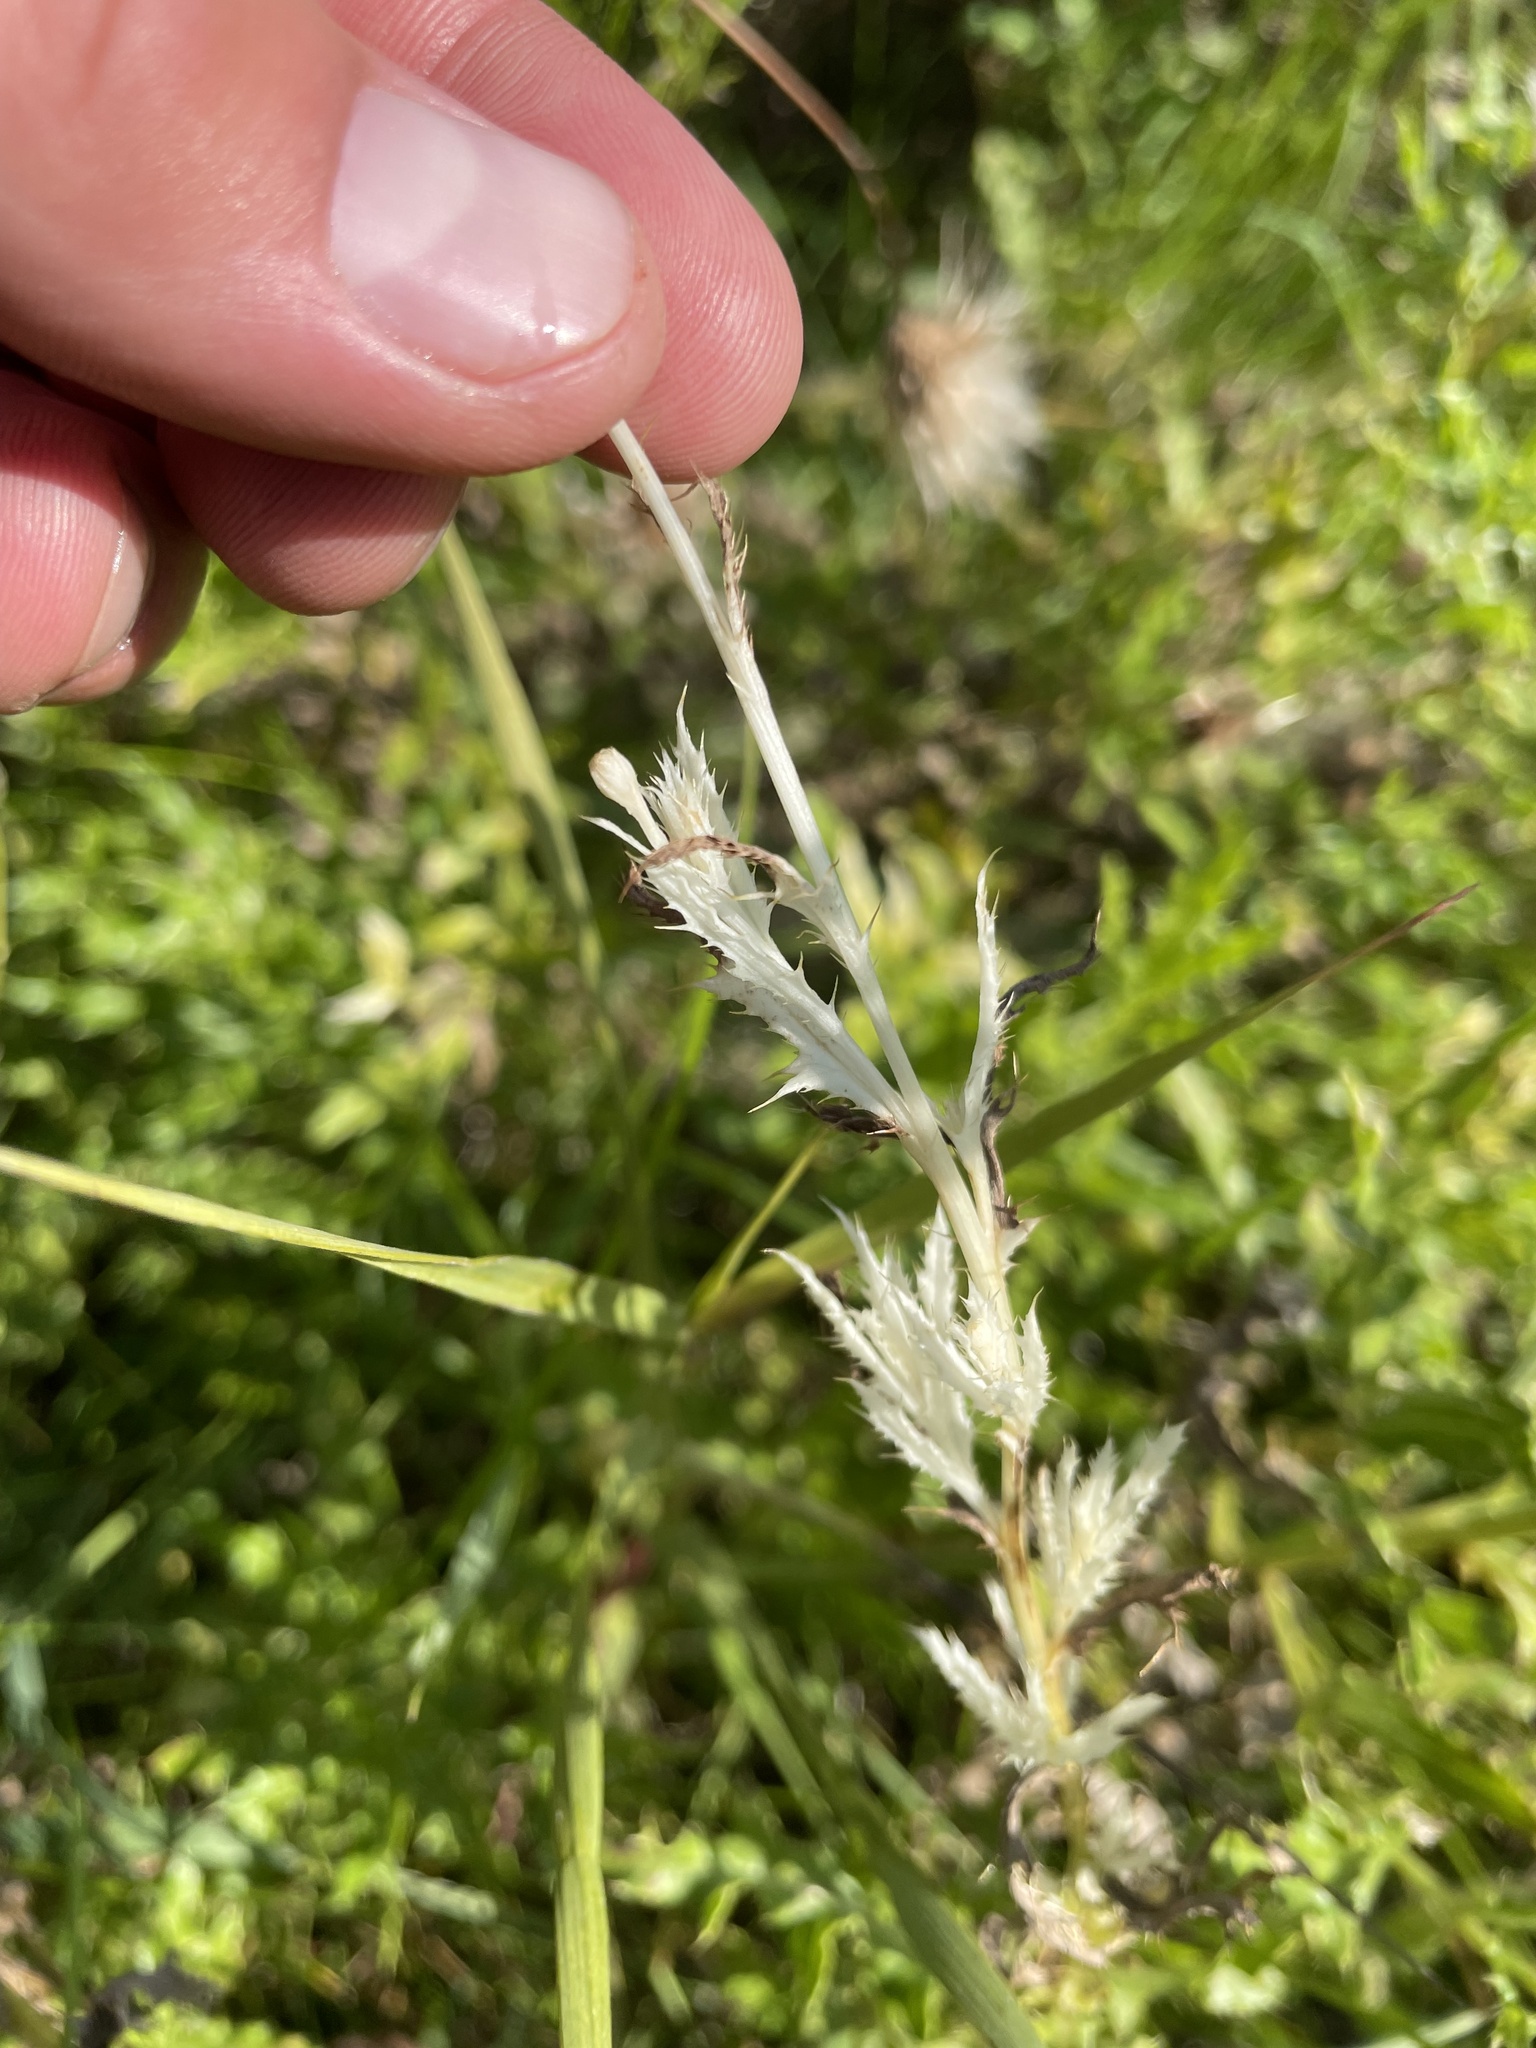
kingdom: Bacteria
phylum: Proteobacteria
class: Gammaproteobacteria
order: Pseudomonadales
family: Pseudomonadaceae
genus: Pseudomonas
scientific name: Pseudomonas syringae
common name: Bacterial speck
